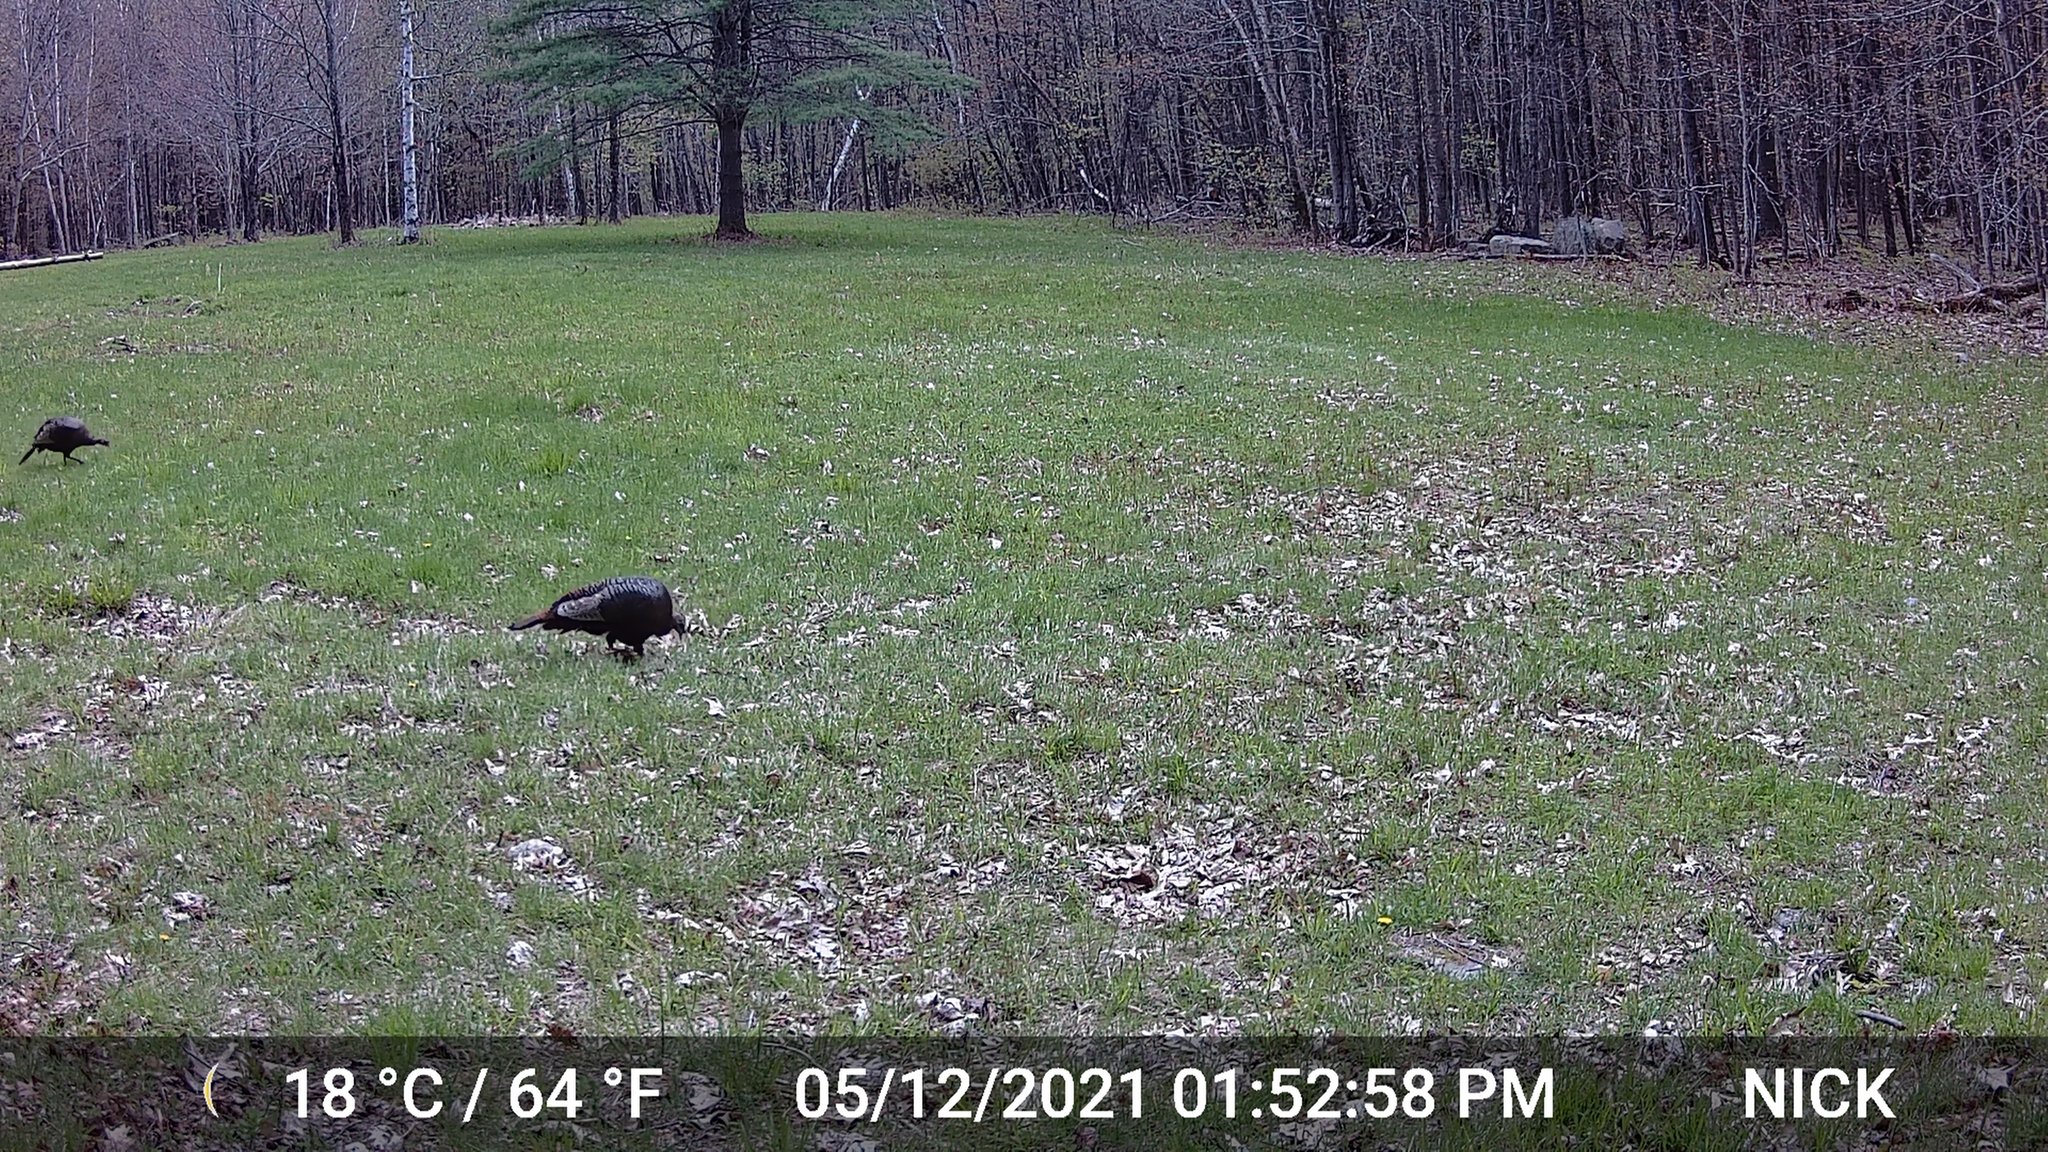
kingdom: Animalia
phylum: Chordata
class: Aves
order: Galliformes
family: Phasianidae
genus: Meleagris
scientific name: Meleagris gallopavo
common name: Wild turkey
